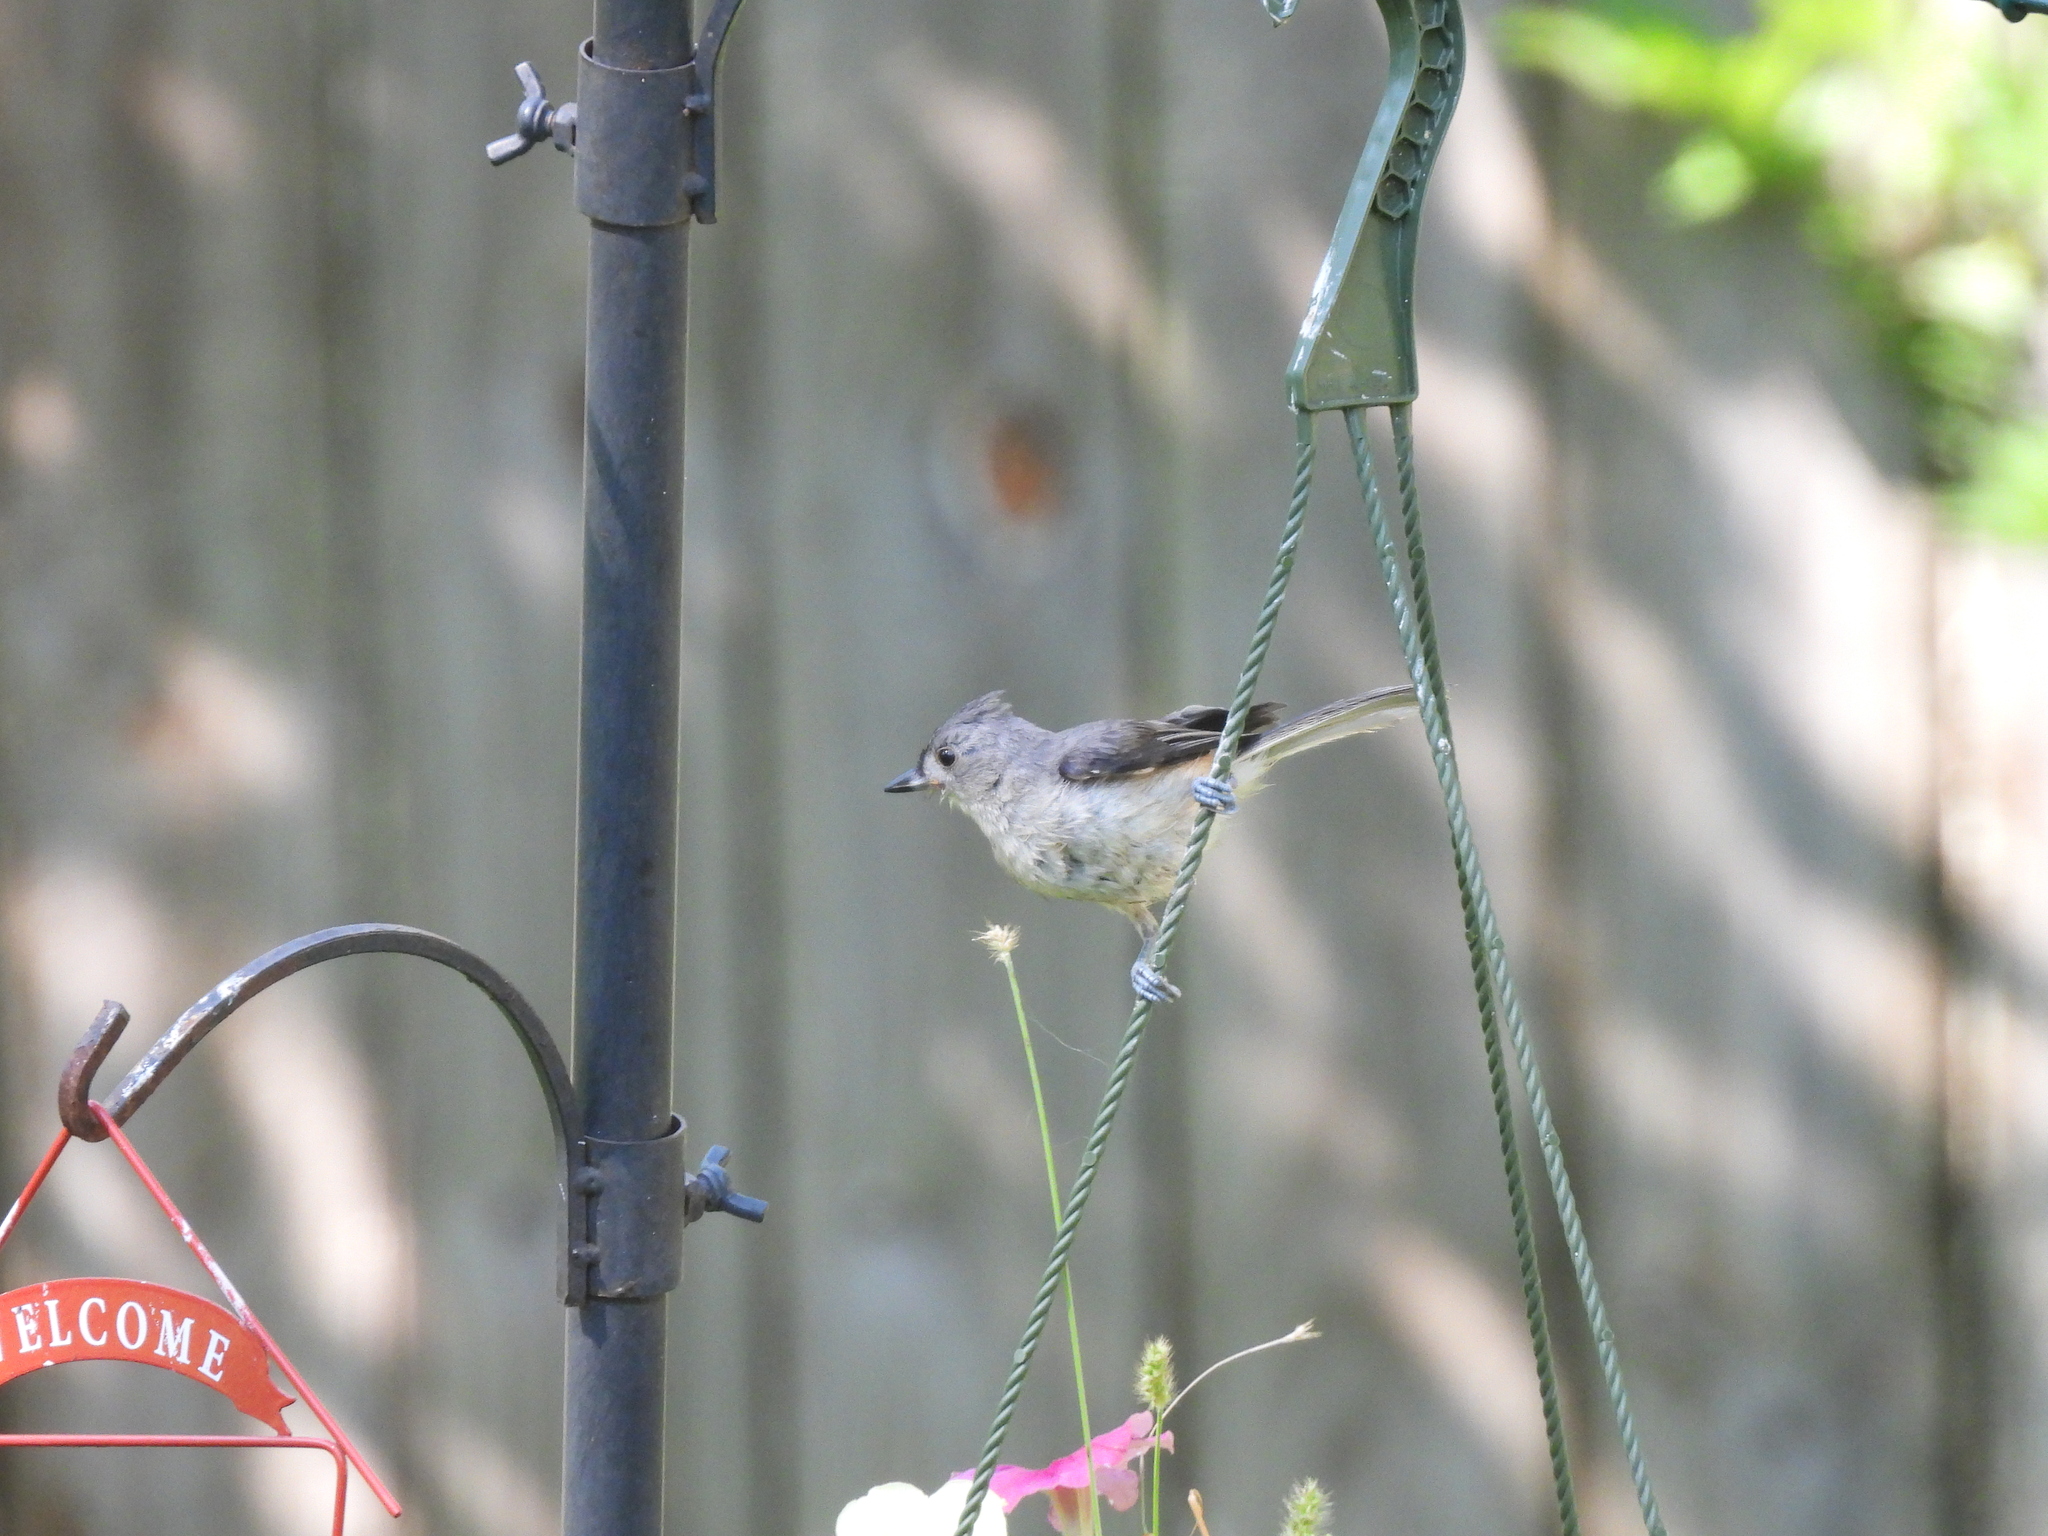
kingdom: Animalia
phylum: Chordata
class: Aves
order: Passeriformes
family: Paridae
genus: Baeolophus
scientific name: Baeolophus bicolor
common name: Tufted titmouse
